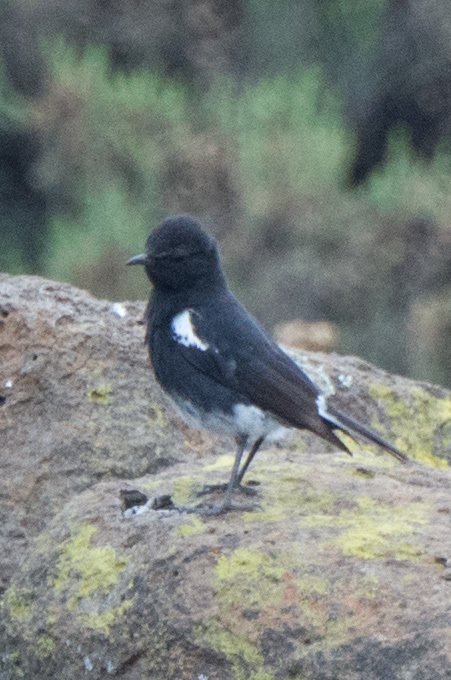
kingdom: Animalia
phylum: Chordata
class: Aves
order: Passeriformes
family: Muscicapidae
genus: Oenanthe
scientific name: Oenanthe monticola
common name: Mountain wheatear
